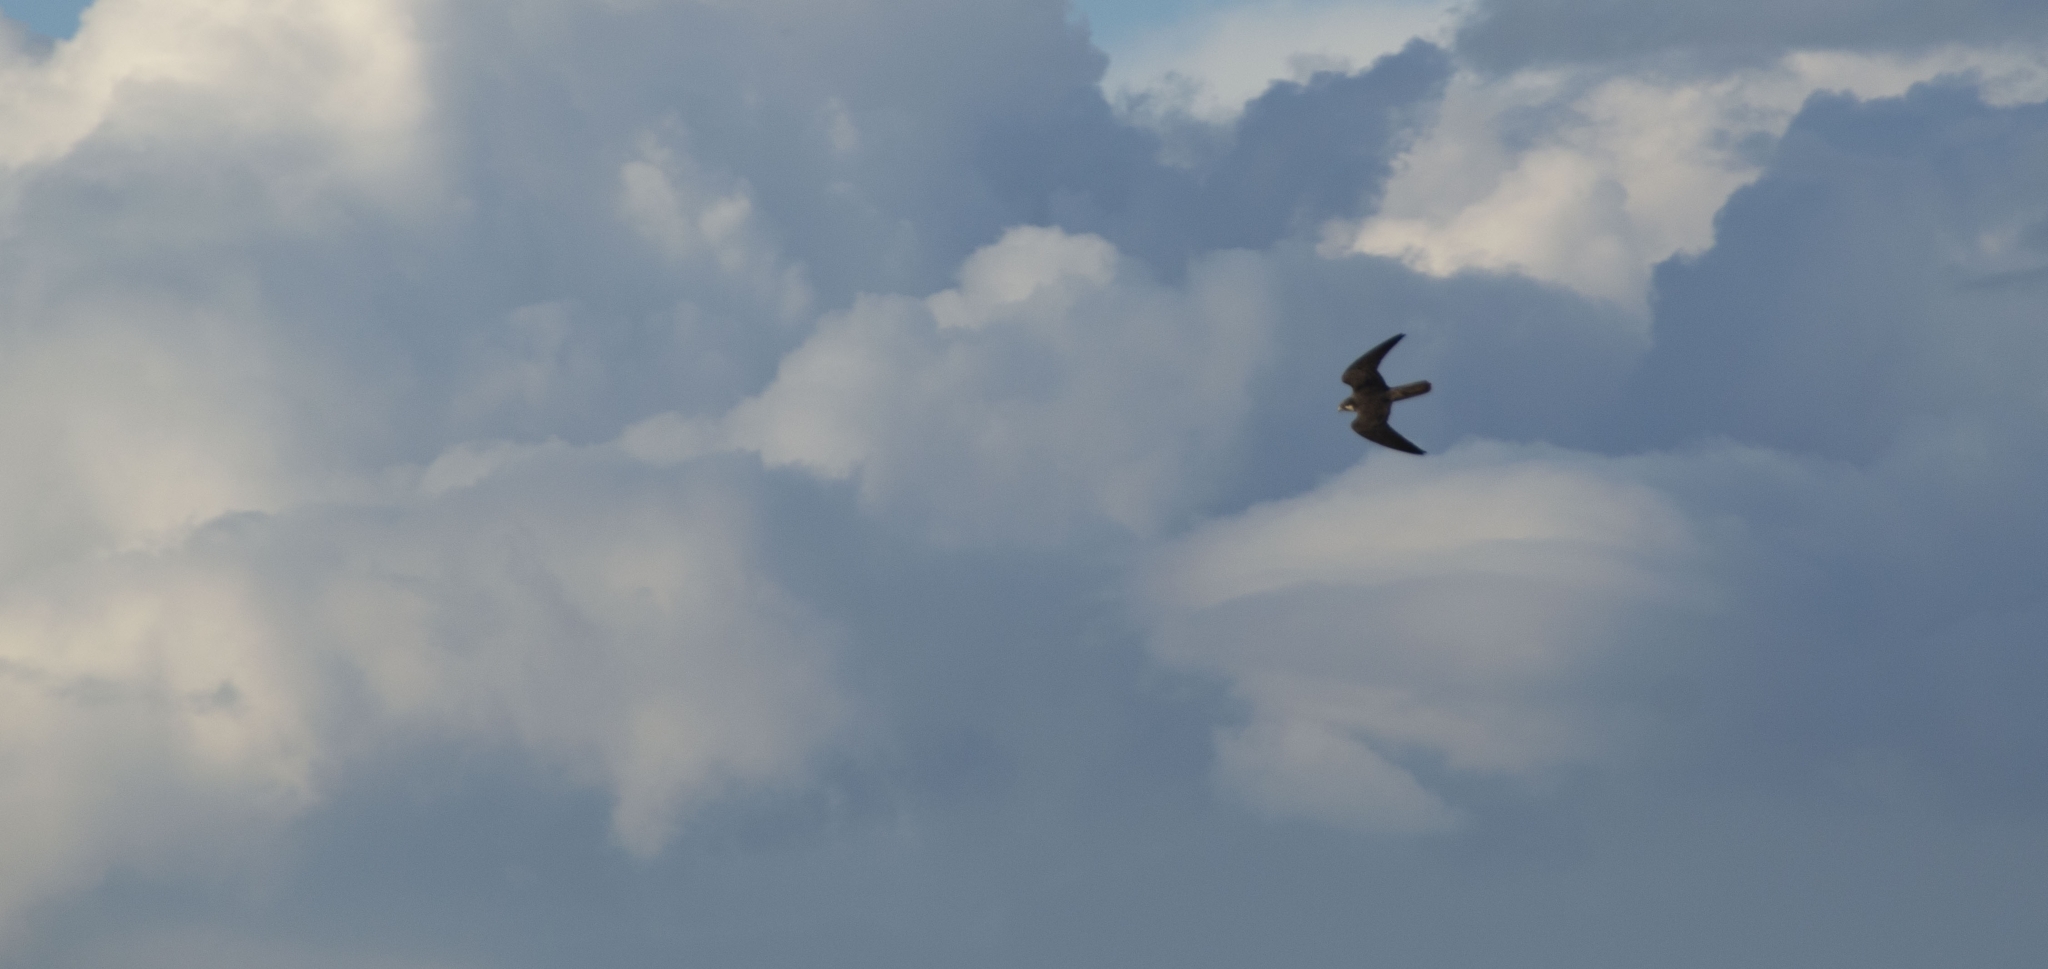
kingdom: Animalia
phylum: Chordata
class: Aves
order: Falconiformes
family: Falconidae
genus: Falco
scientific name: Falco eleonorae
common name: Eleonora's falcon
